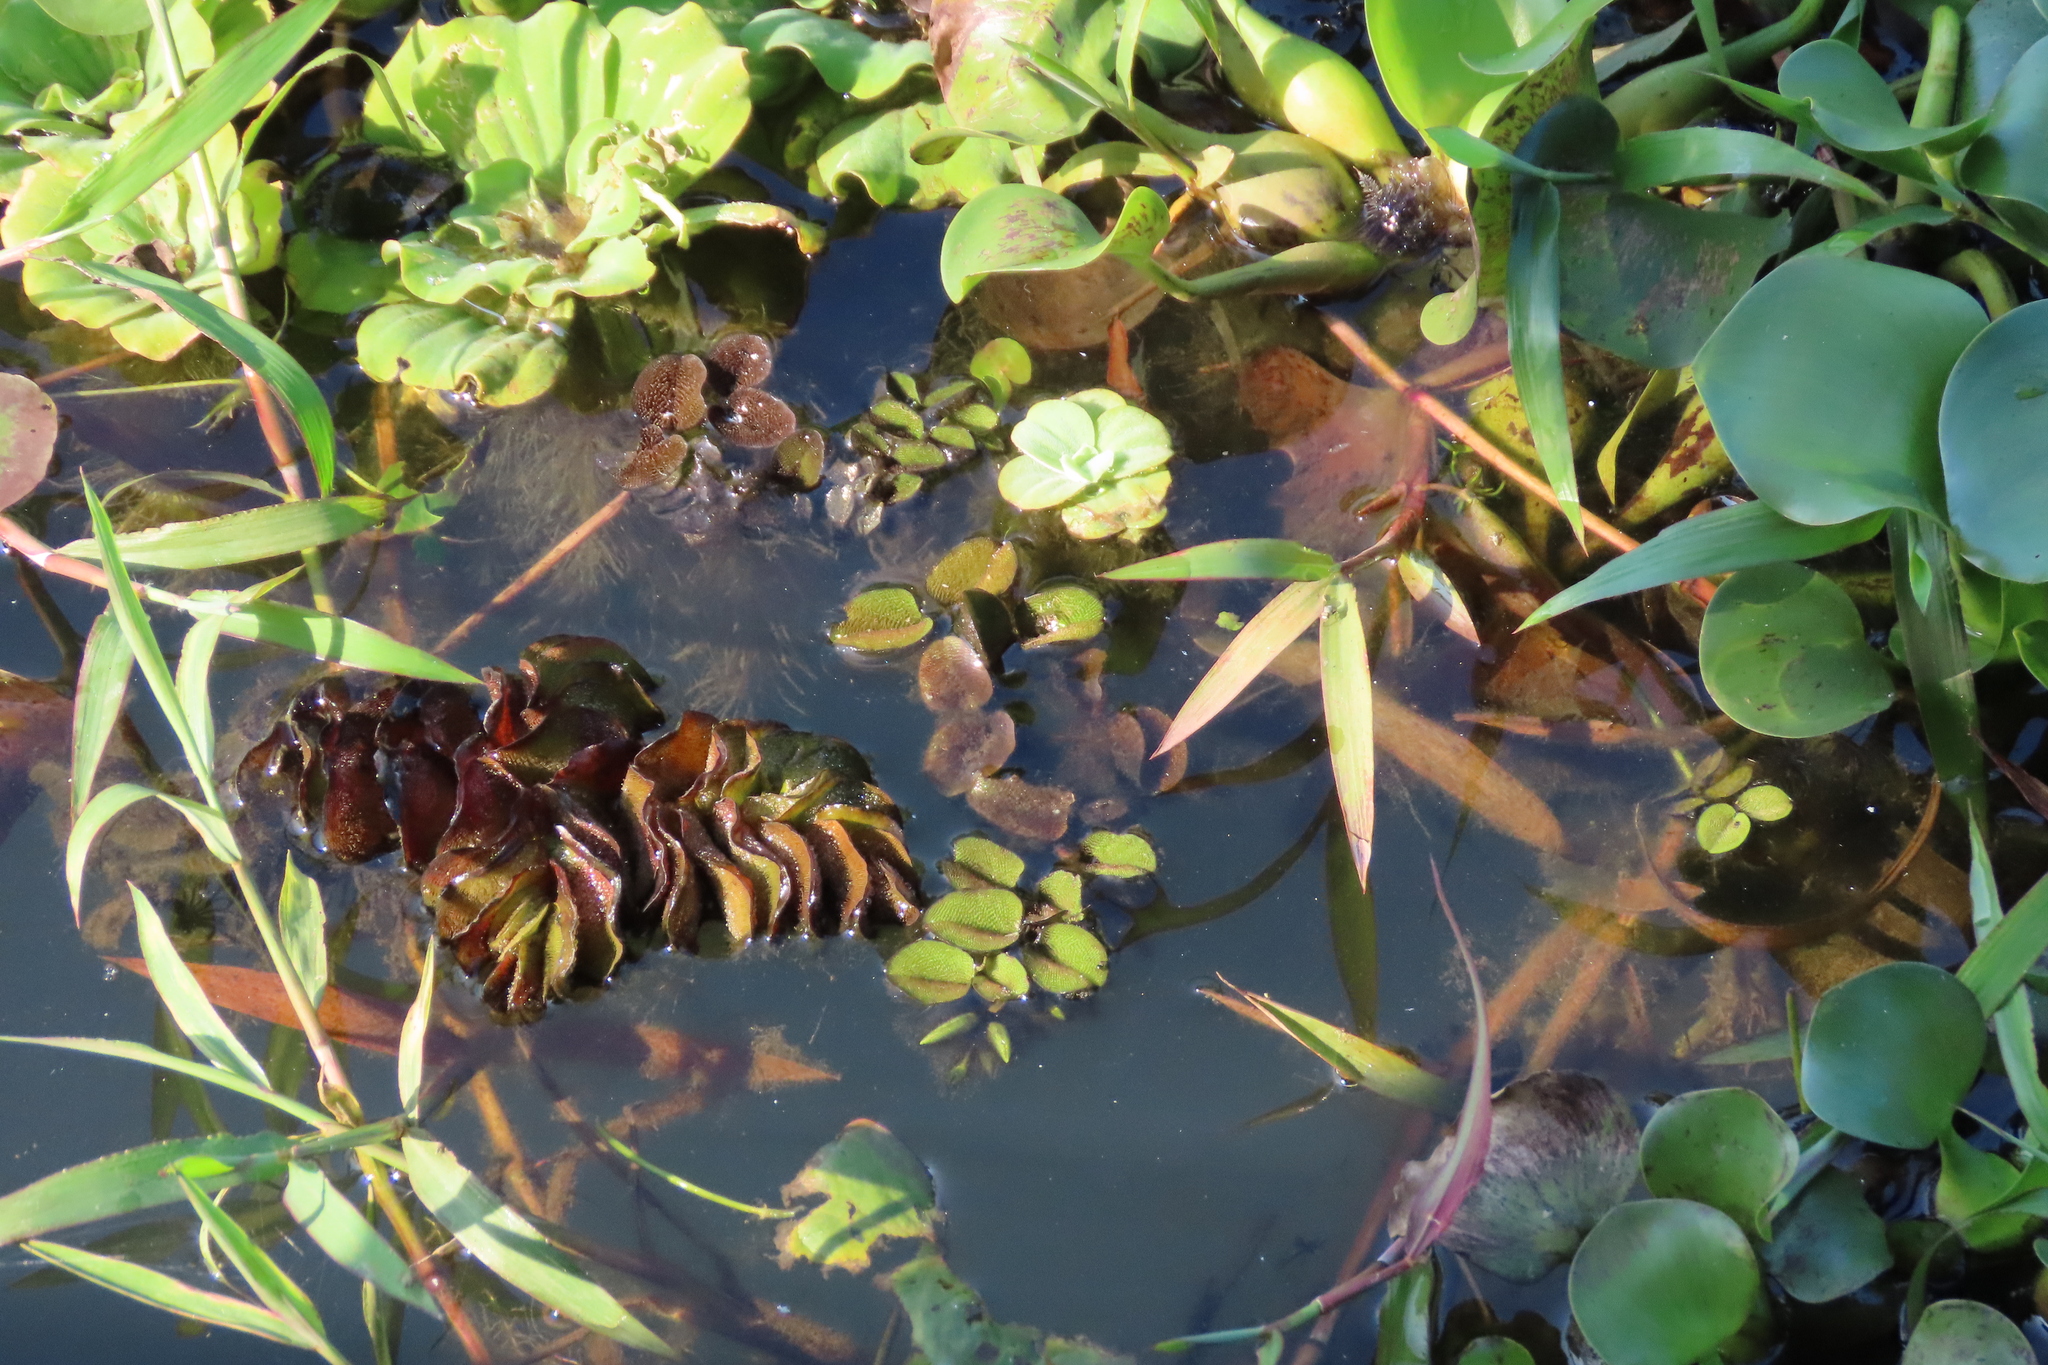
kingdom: Plantae
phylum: Tracheophyta
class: Polypodiopsida
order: Salviniales
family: Salviniaceae
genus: Salvinia
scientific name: Salvinia molesta
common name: Kariba weed
